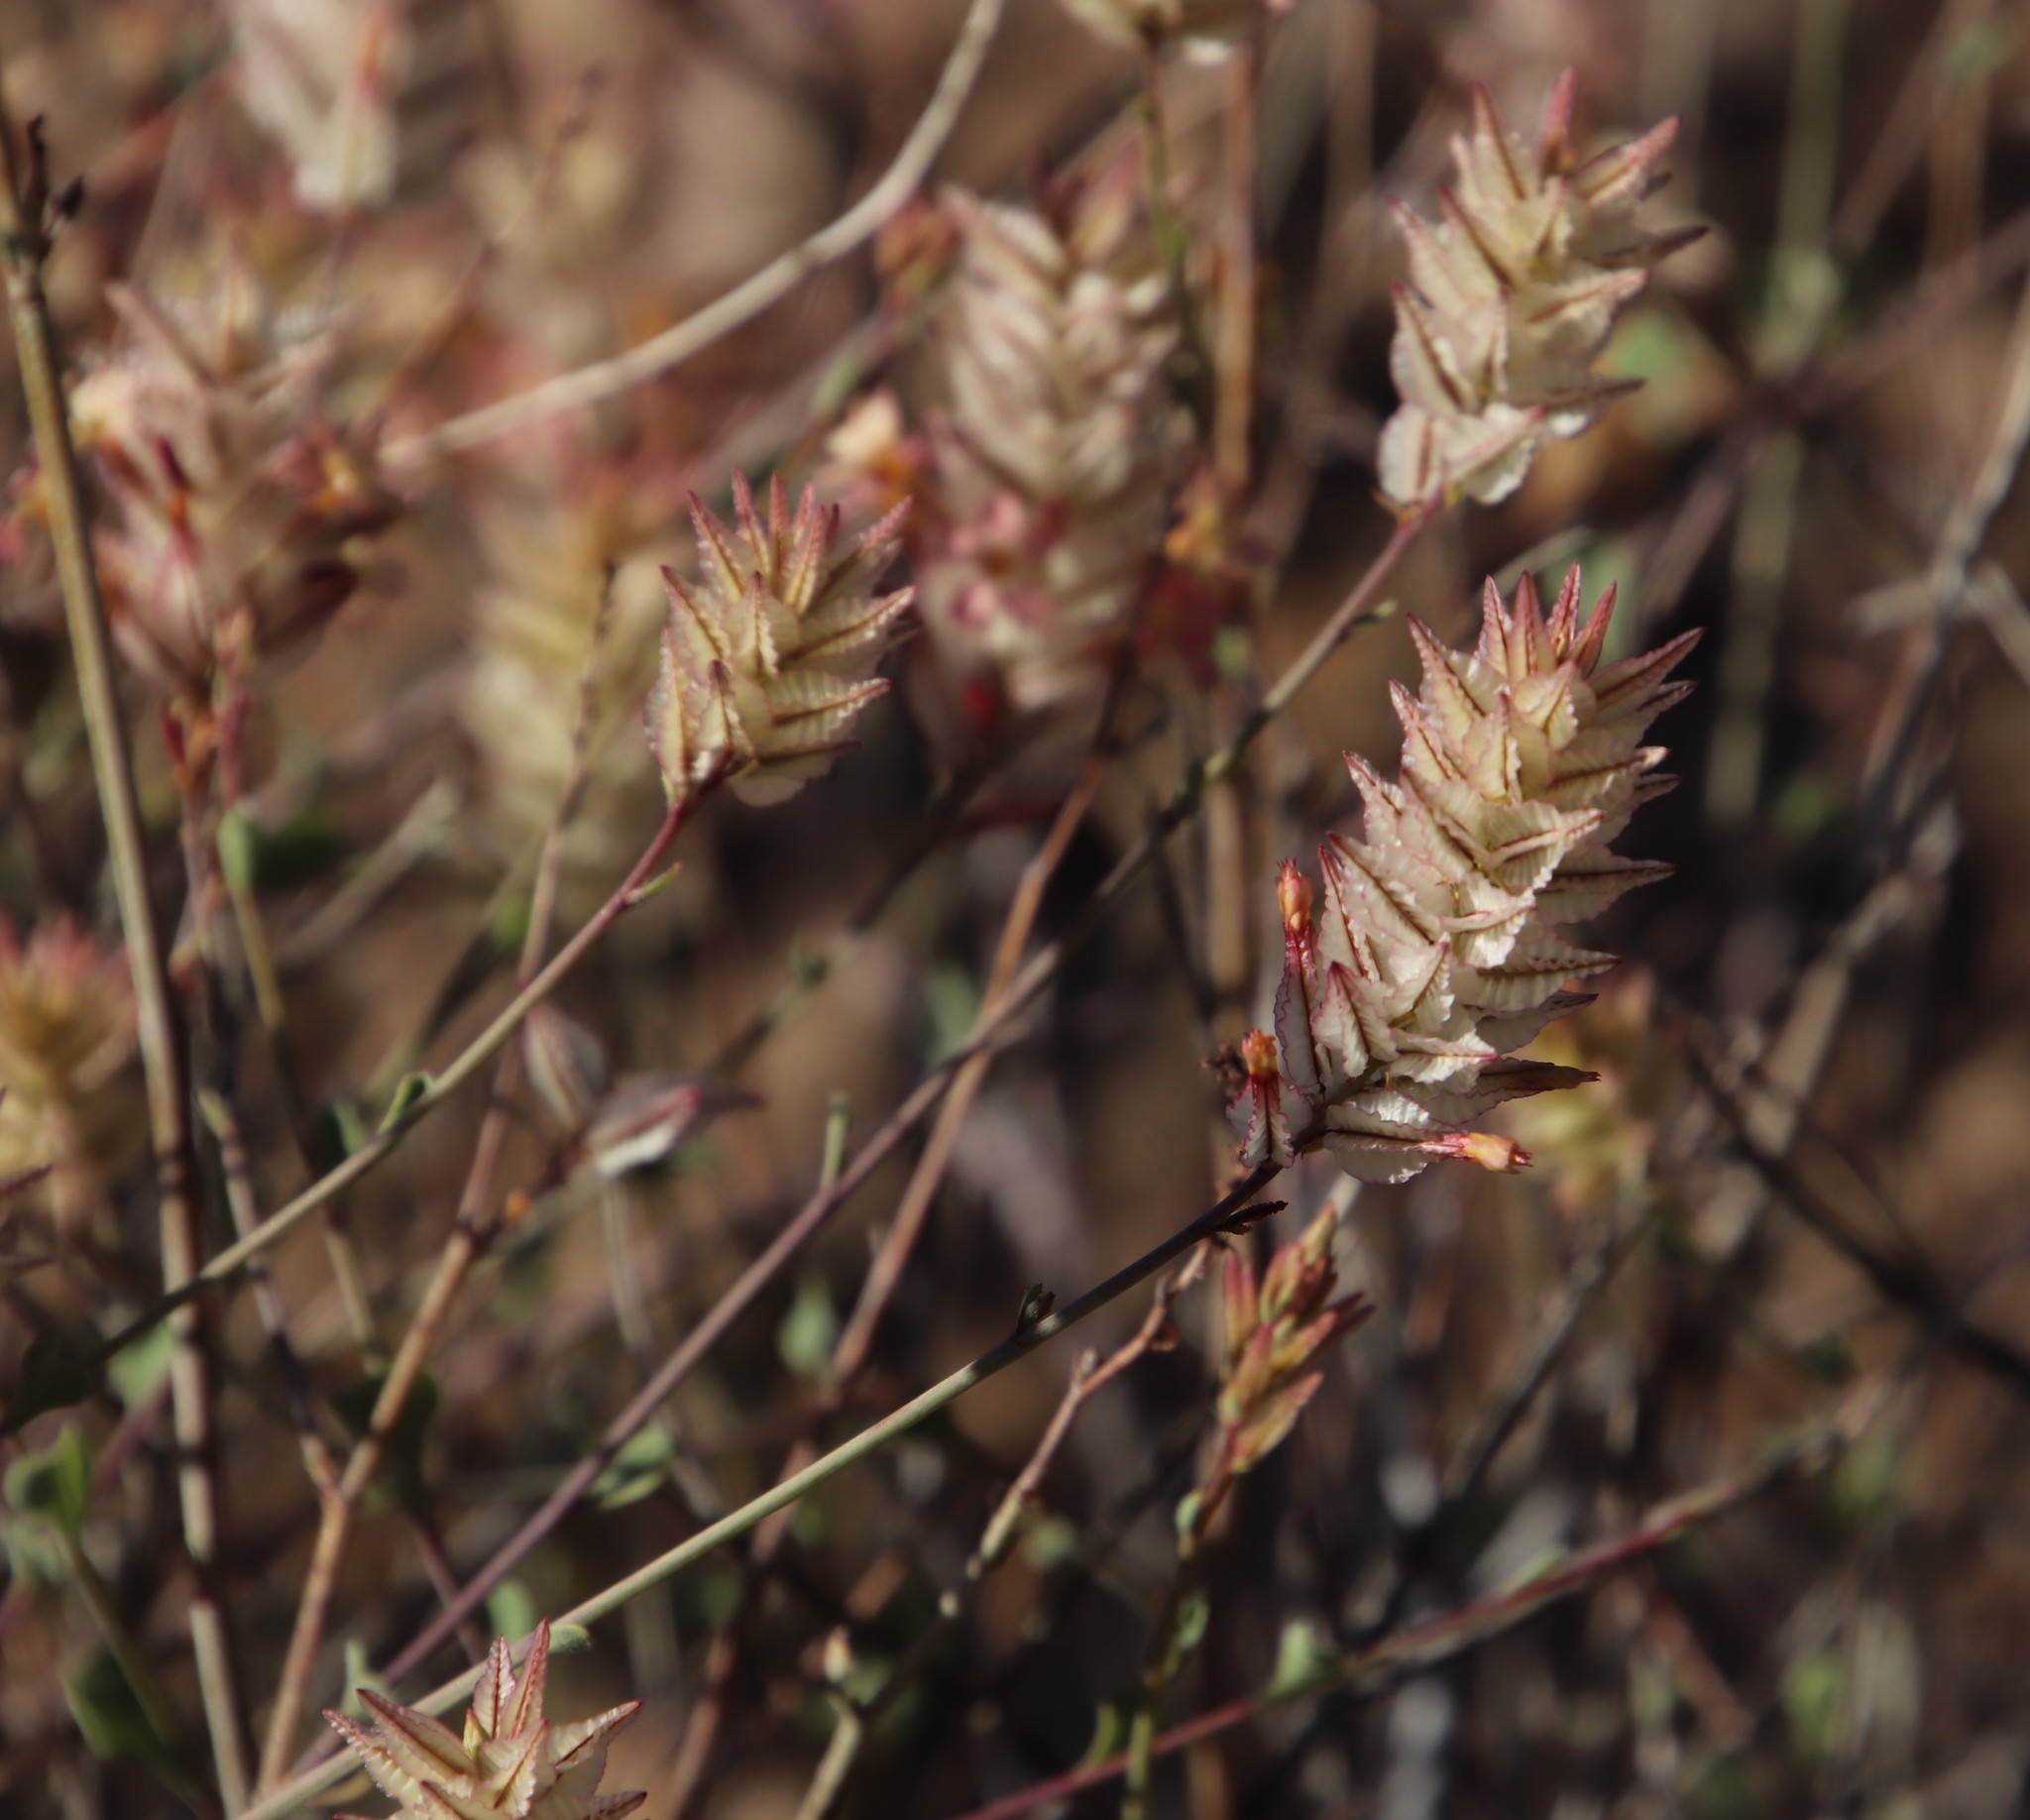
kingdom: Plantae
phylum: Tracheophyta
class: Magnoliopsida
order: Caryophyllales
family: Plumbaginaceae
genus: Dyerophytum
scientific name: Dyerophytum africanum
